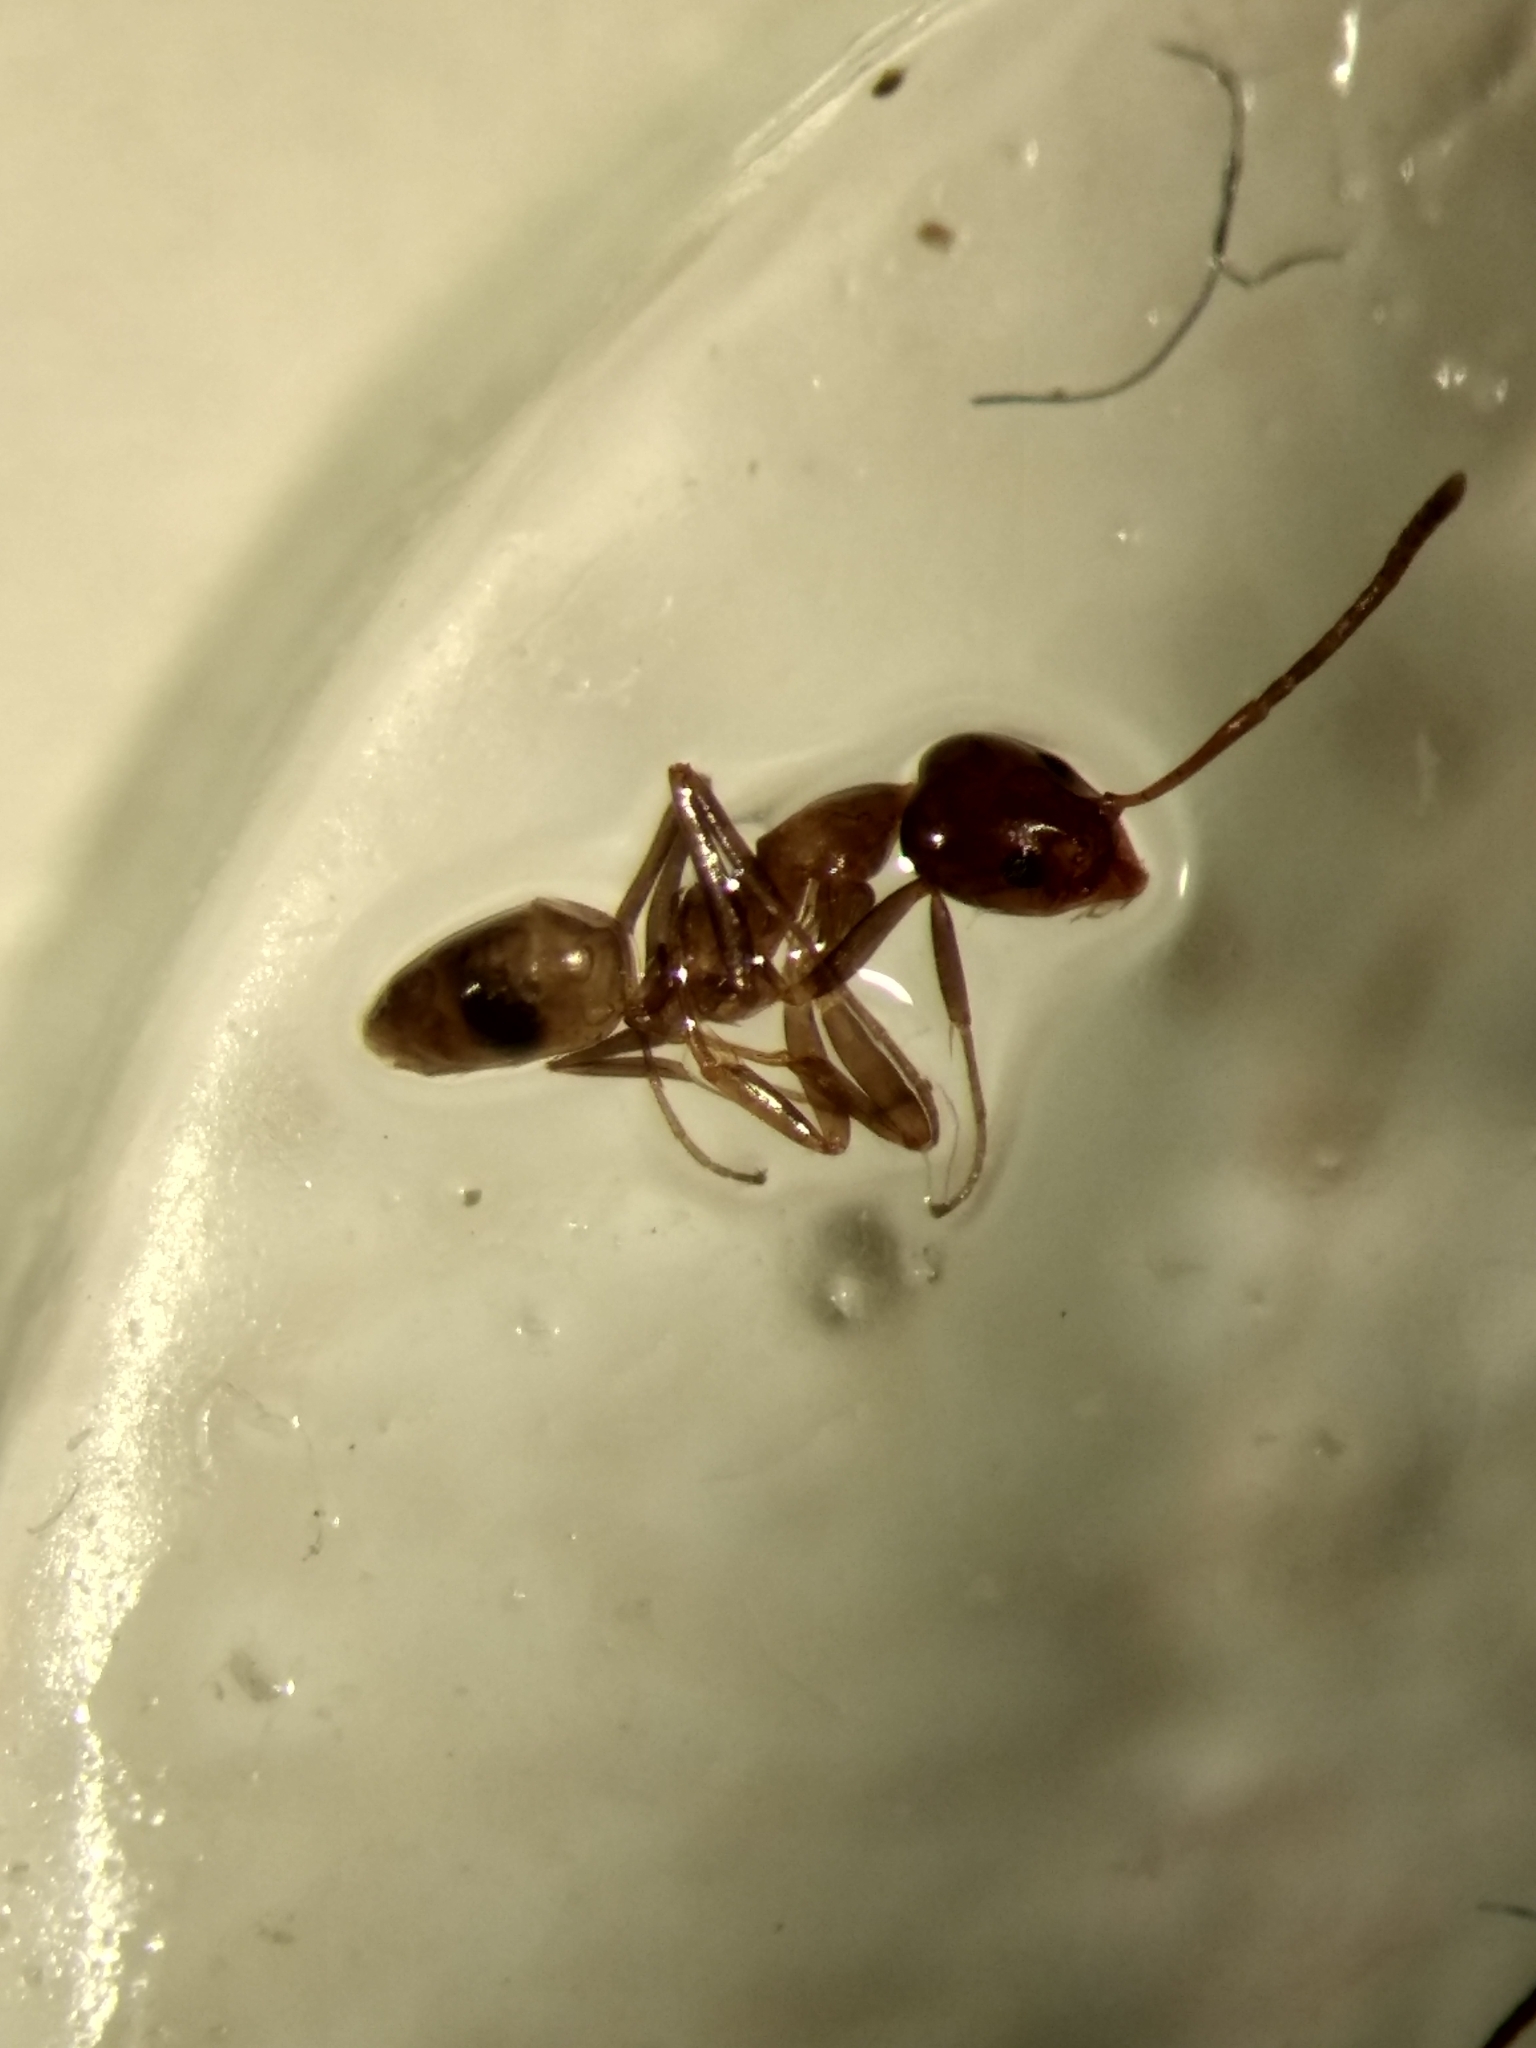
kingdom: Animalia
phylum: Arthropoda
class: Insecta
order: Hymenoptera
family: Formicidae
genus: Linepithema
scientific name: Linepithema humile
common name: Argentine ant
